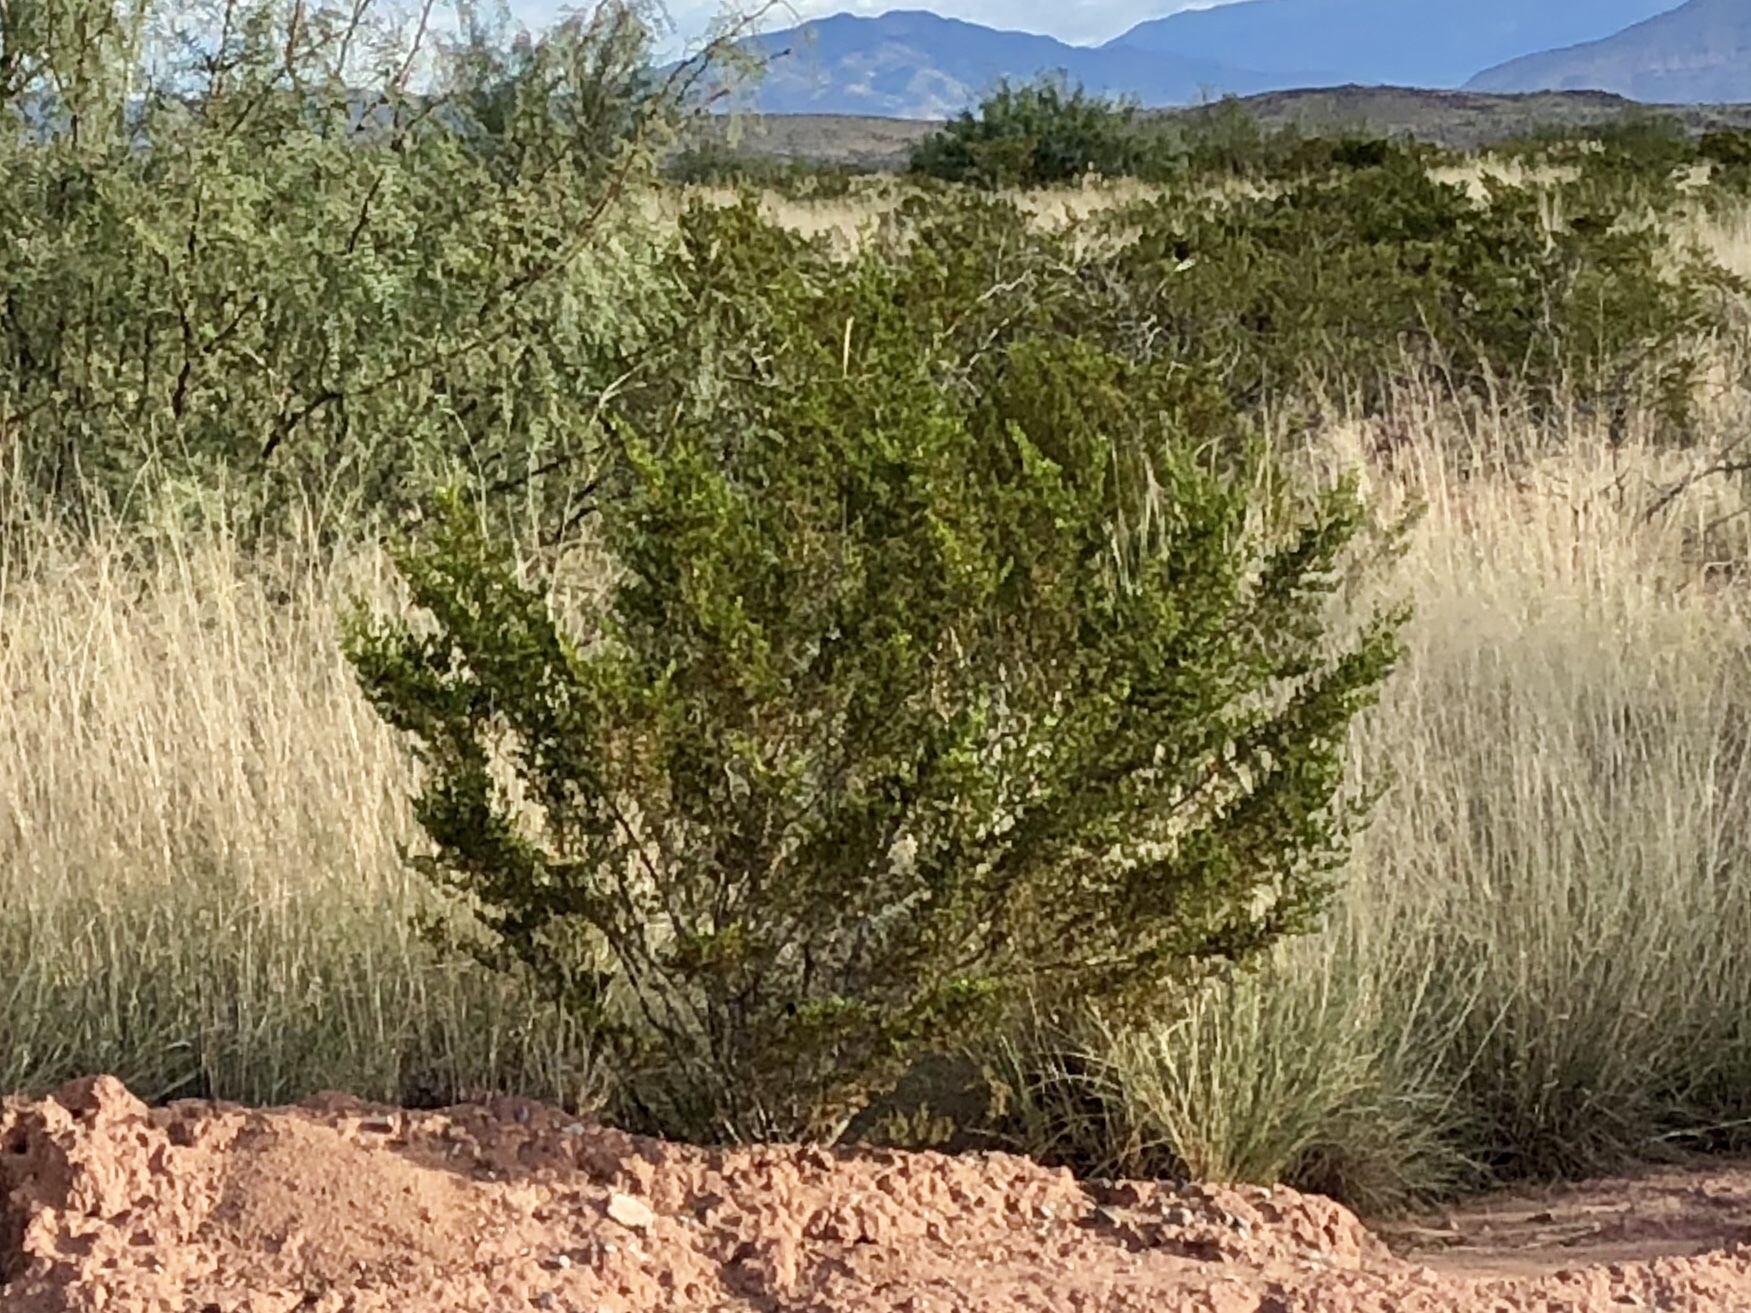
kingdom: Plantae
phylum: Tracheophyta
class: Magnoliopsida
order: Zygophyllales
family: Zygophyllaceae
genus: Larrea
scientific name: Larrea tridentata
